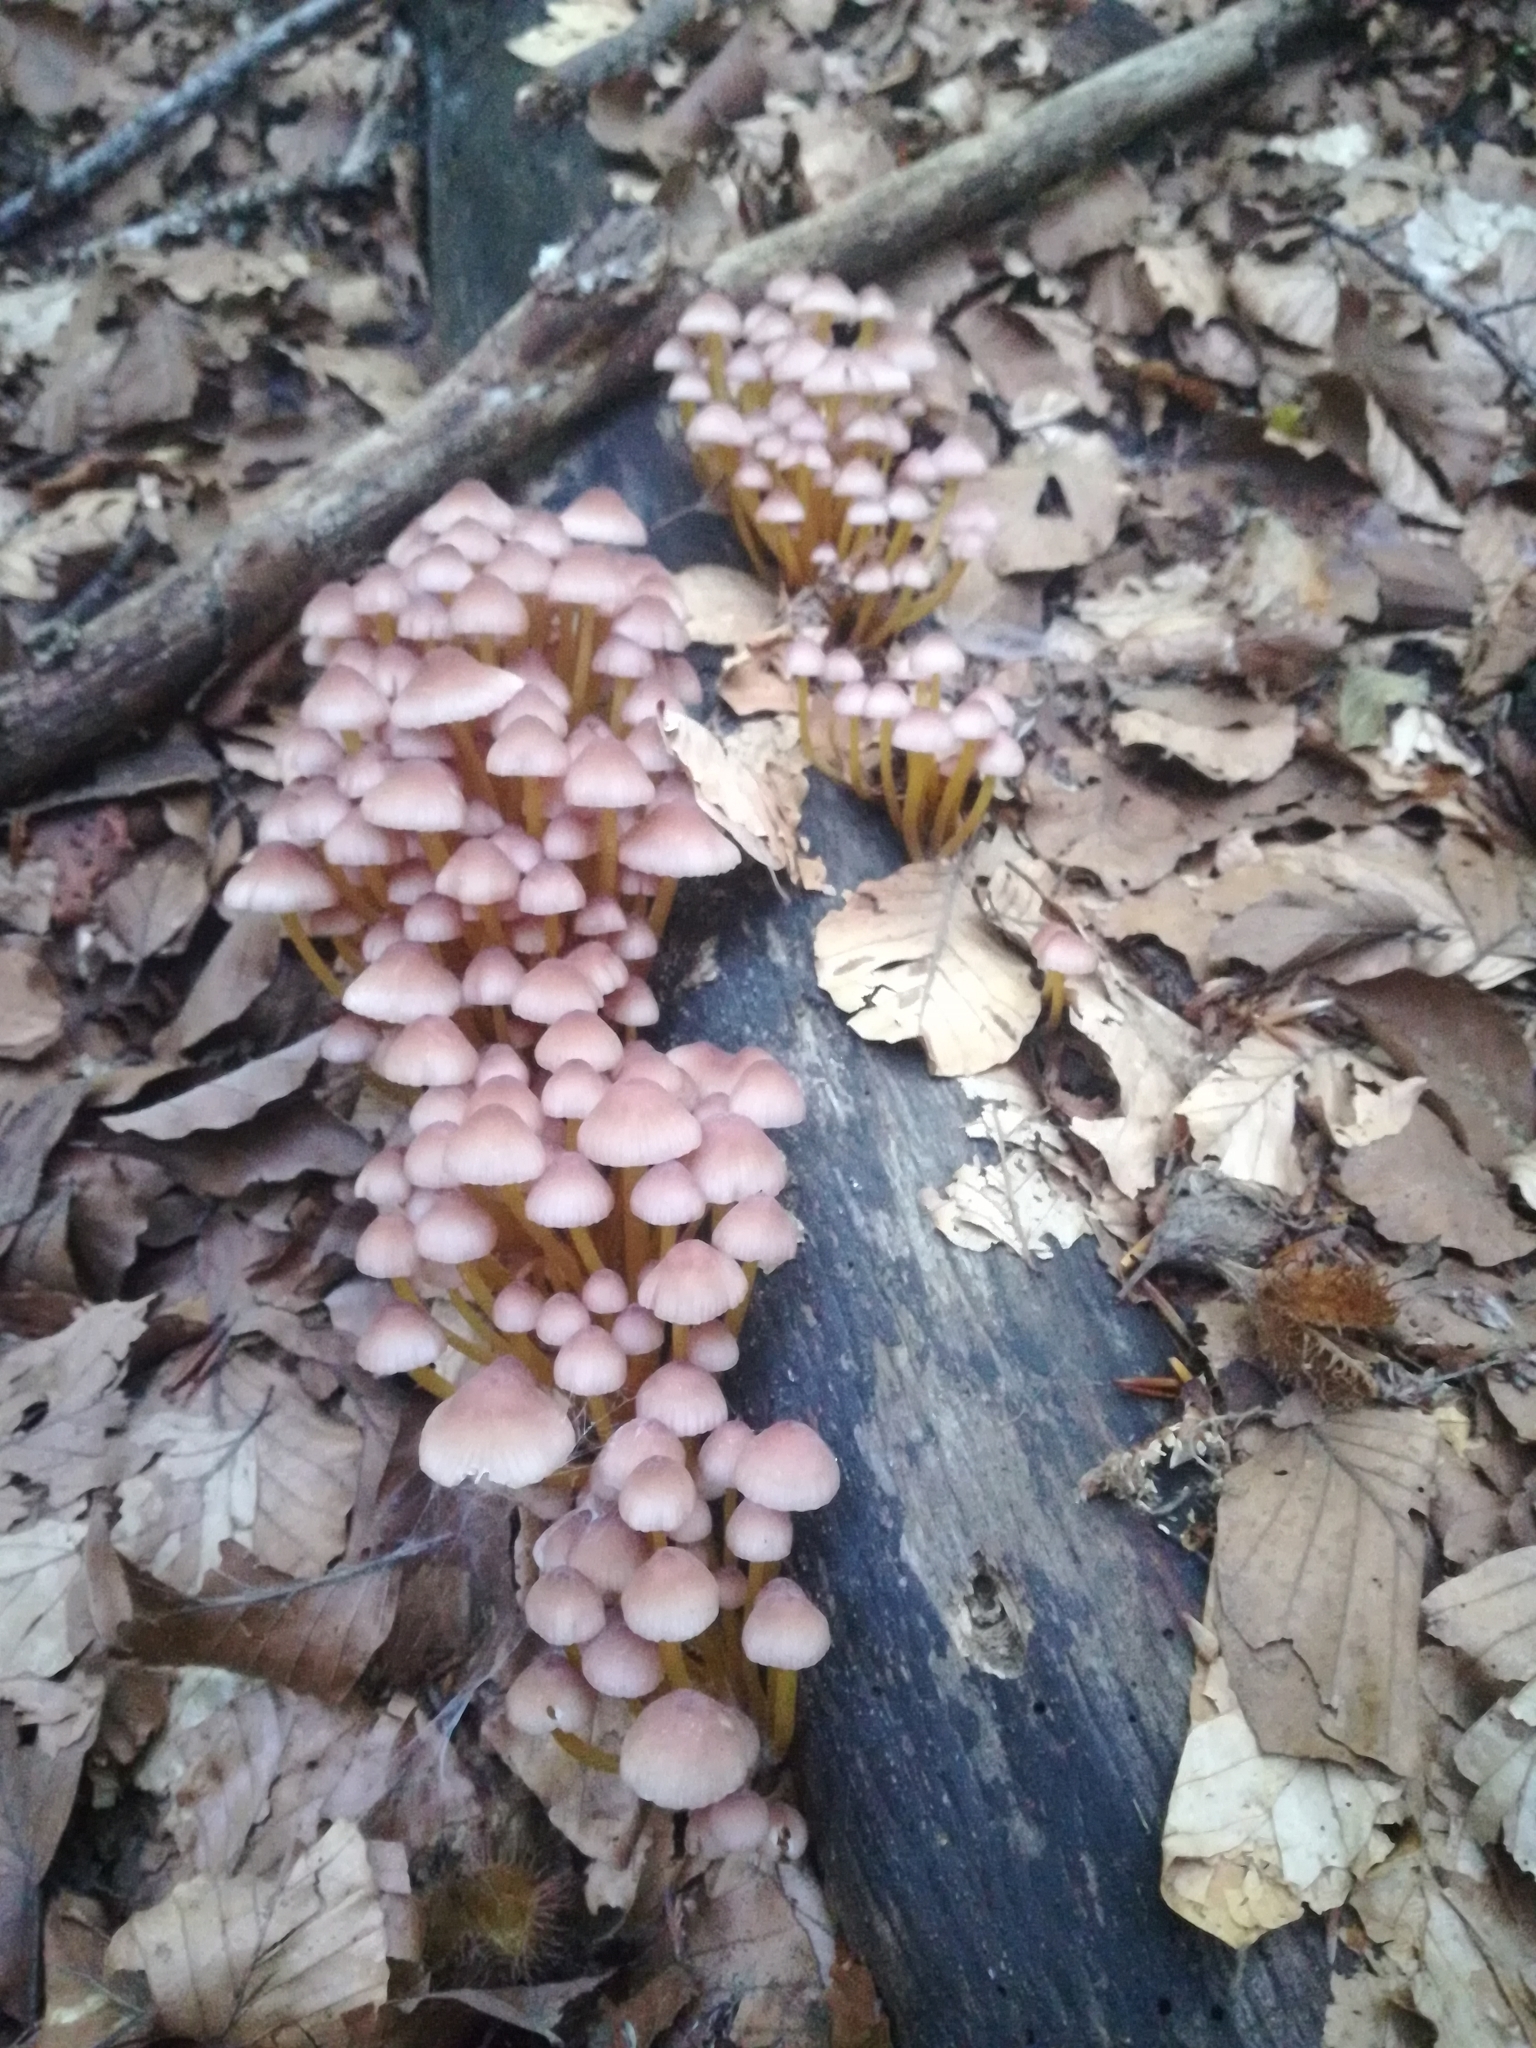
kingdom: Fungi
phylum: Basidiomycota
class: Agaricomycetes
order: Agaricales
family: Mycenaceae
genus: Mycena
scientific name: Mycena renati
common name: Beautiful bonnet
